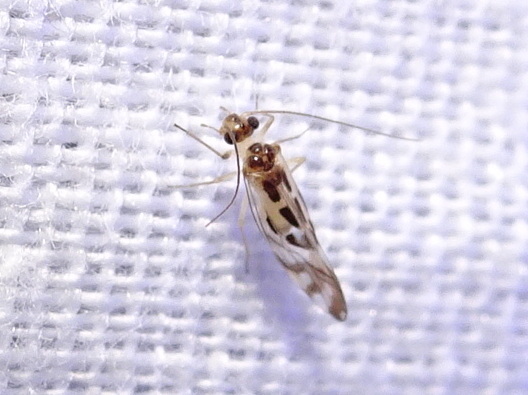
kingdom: Animalia
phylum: Arthropoda
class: Insecta
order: Psocodea
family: Stenopsocidae
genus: Graphopsocus
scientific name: Graphopsocus cruciatus
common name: Lizard bark louse
